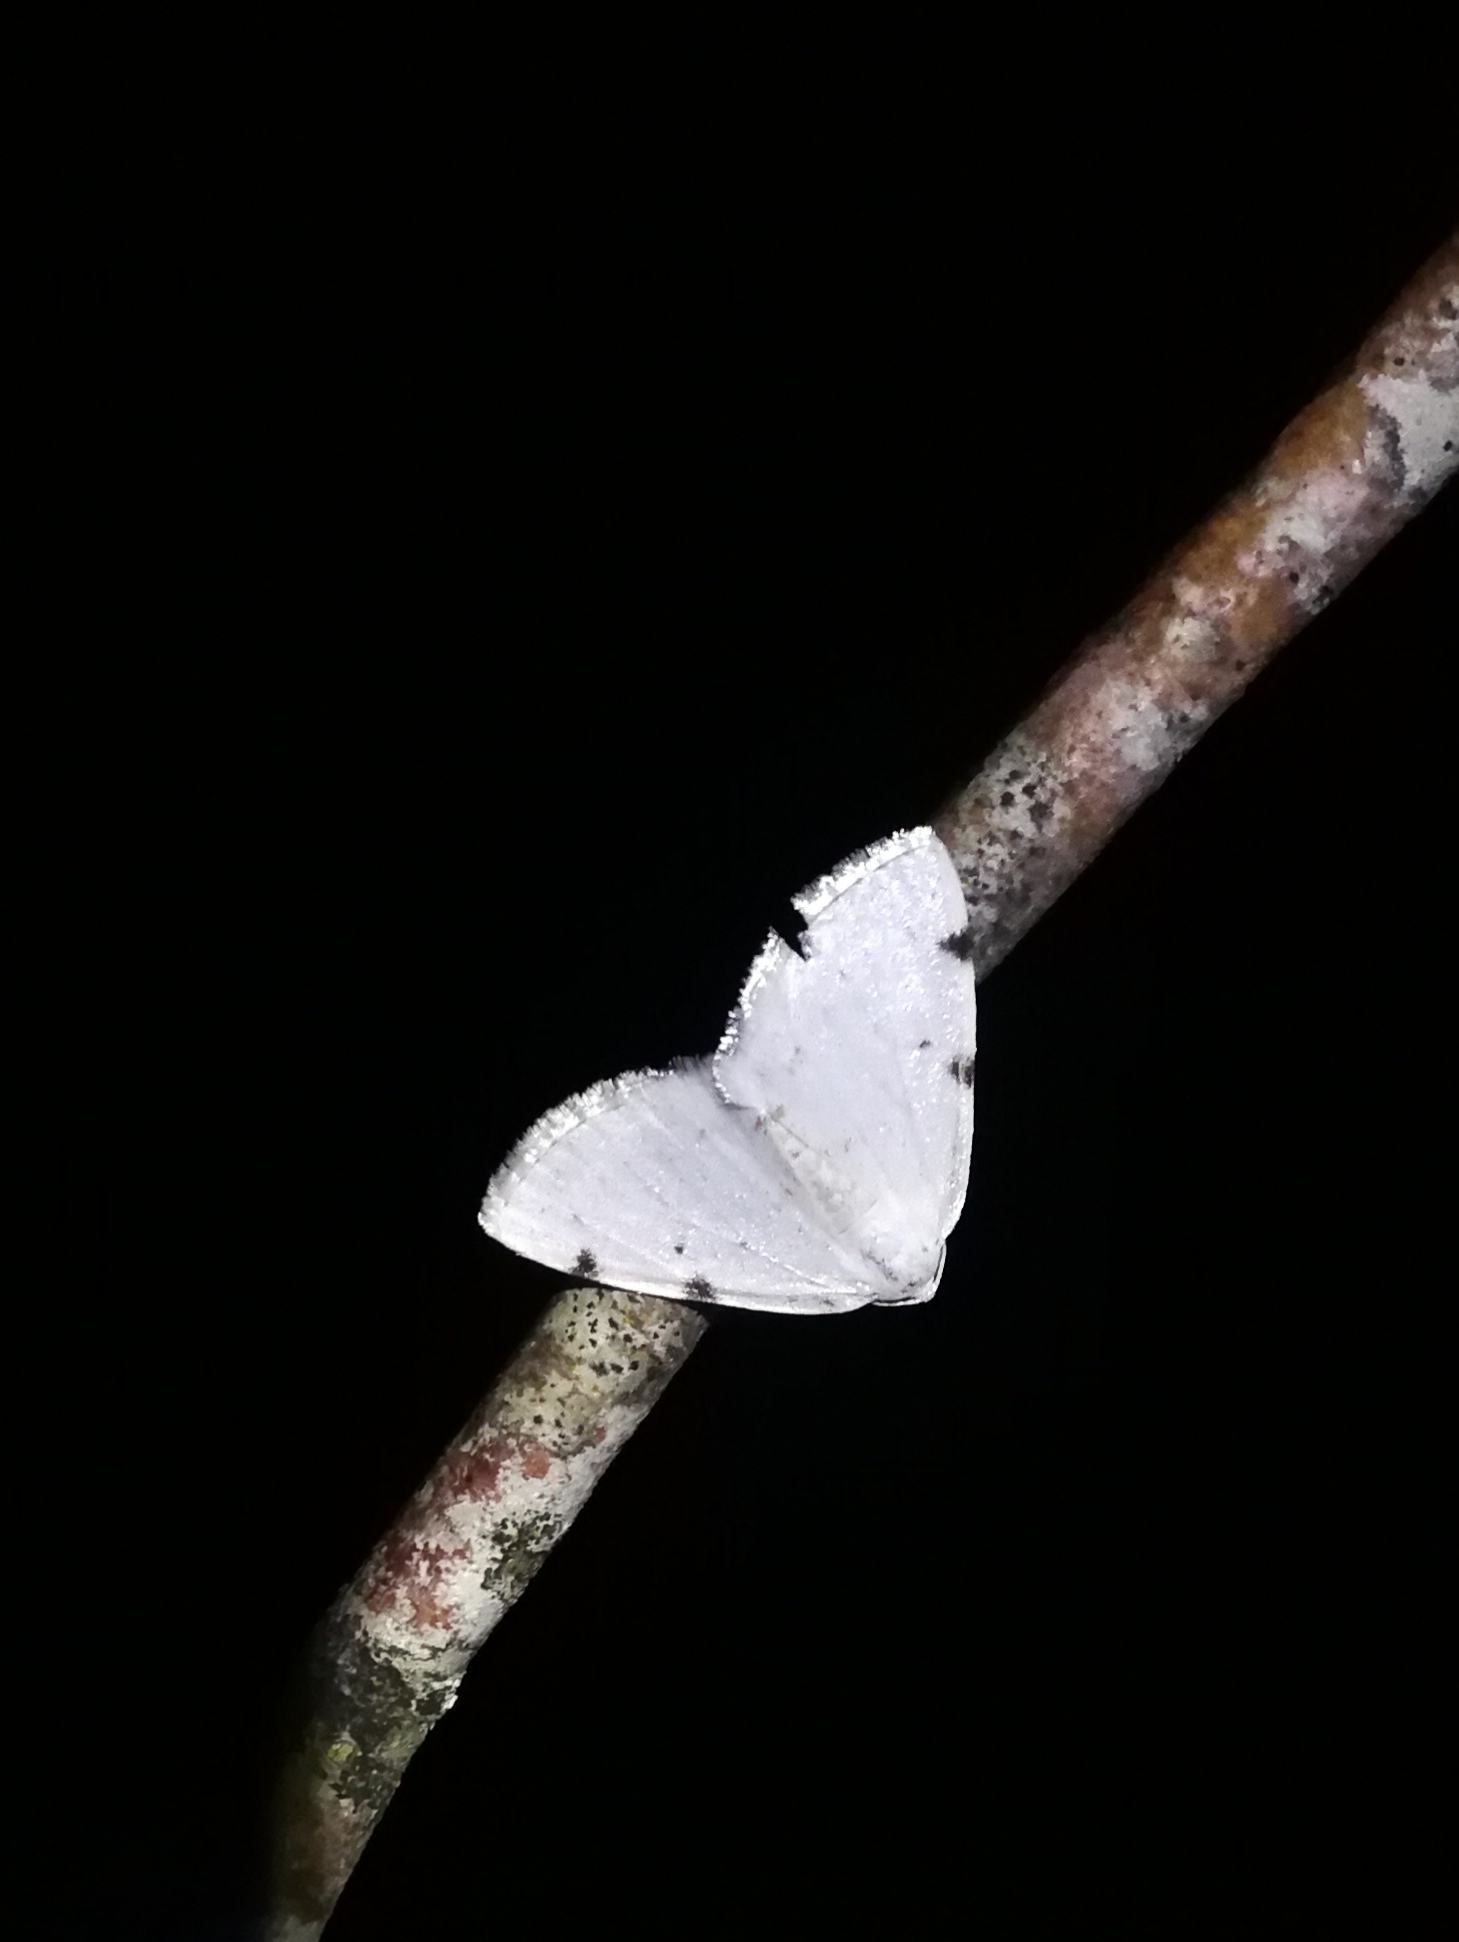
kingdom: Animalia
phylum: Arthropoda
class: Insecta
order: Lepidoptera
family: Geometridae
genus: Lomographa
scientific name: Lomographa bimaculata
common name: White-pinion spotted
